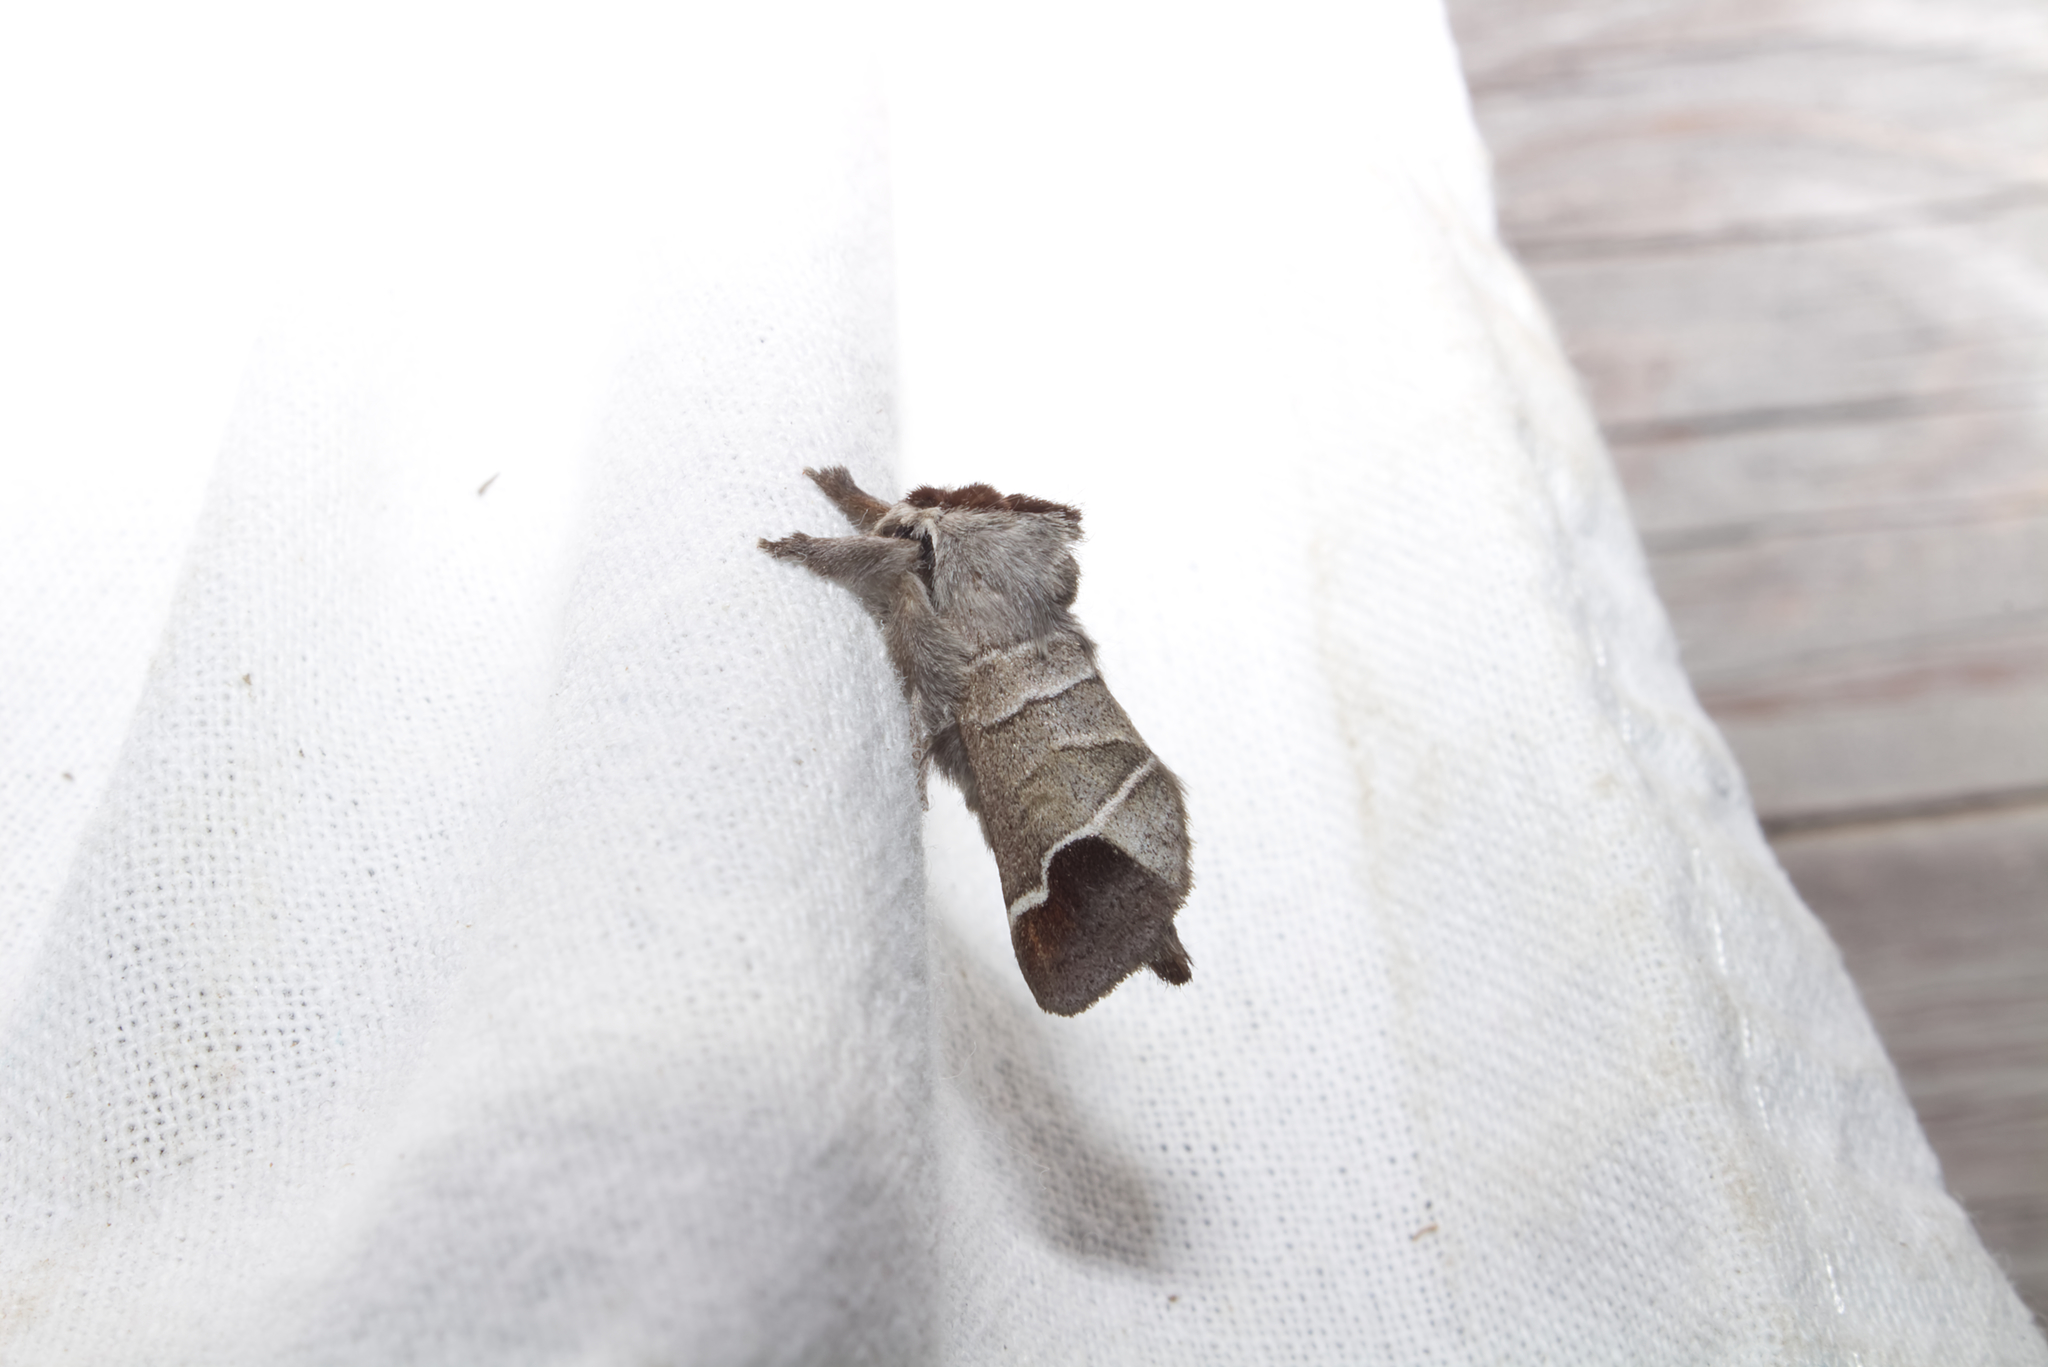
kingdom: Animalia
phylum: Arthropoda
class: Insecta
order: Lepidoptera
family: Notodontidae
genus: Clostera
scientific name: Clostera curtula
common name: Chocolate-tip
